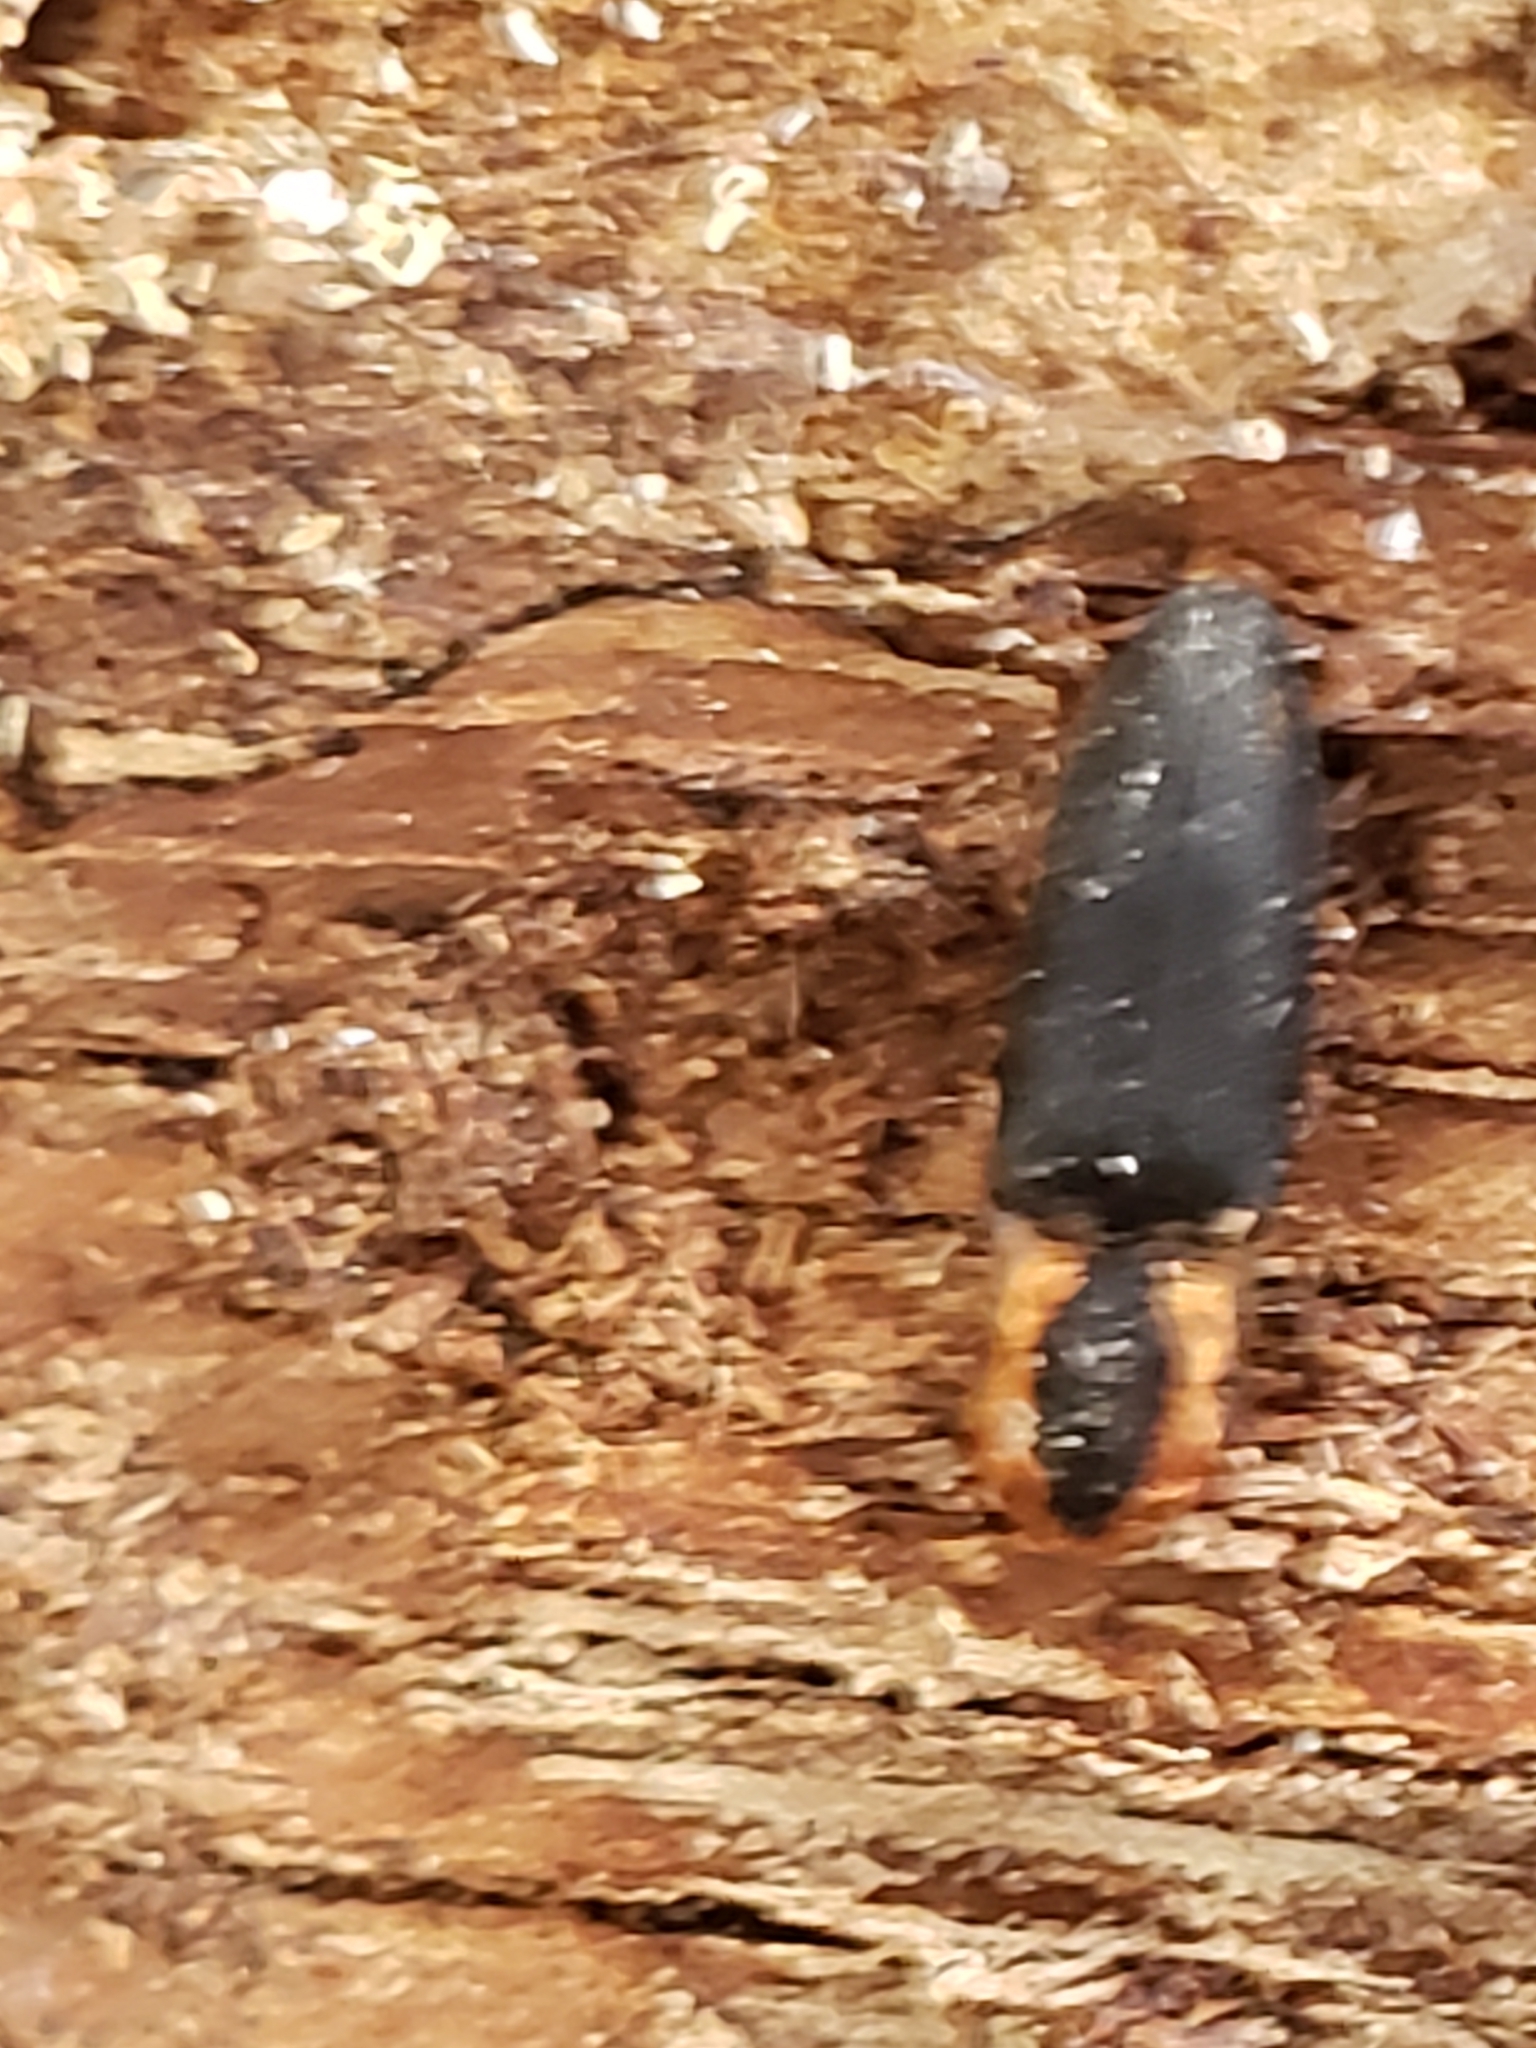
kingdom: Animalia
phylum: Arthropoda
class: Insecta
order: Coleoptera
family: Elateridae
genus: Lacon
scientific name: Lacon discoideus
